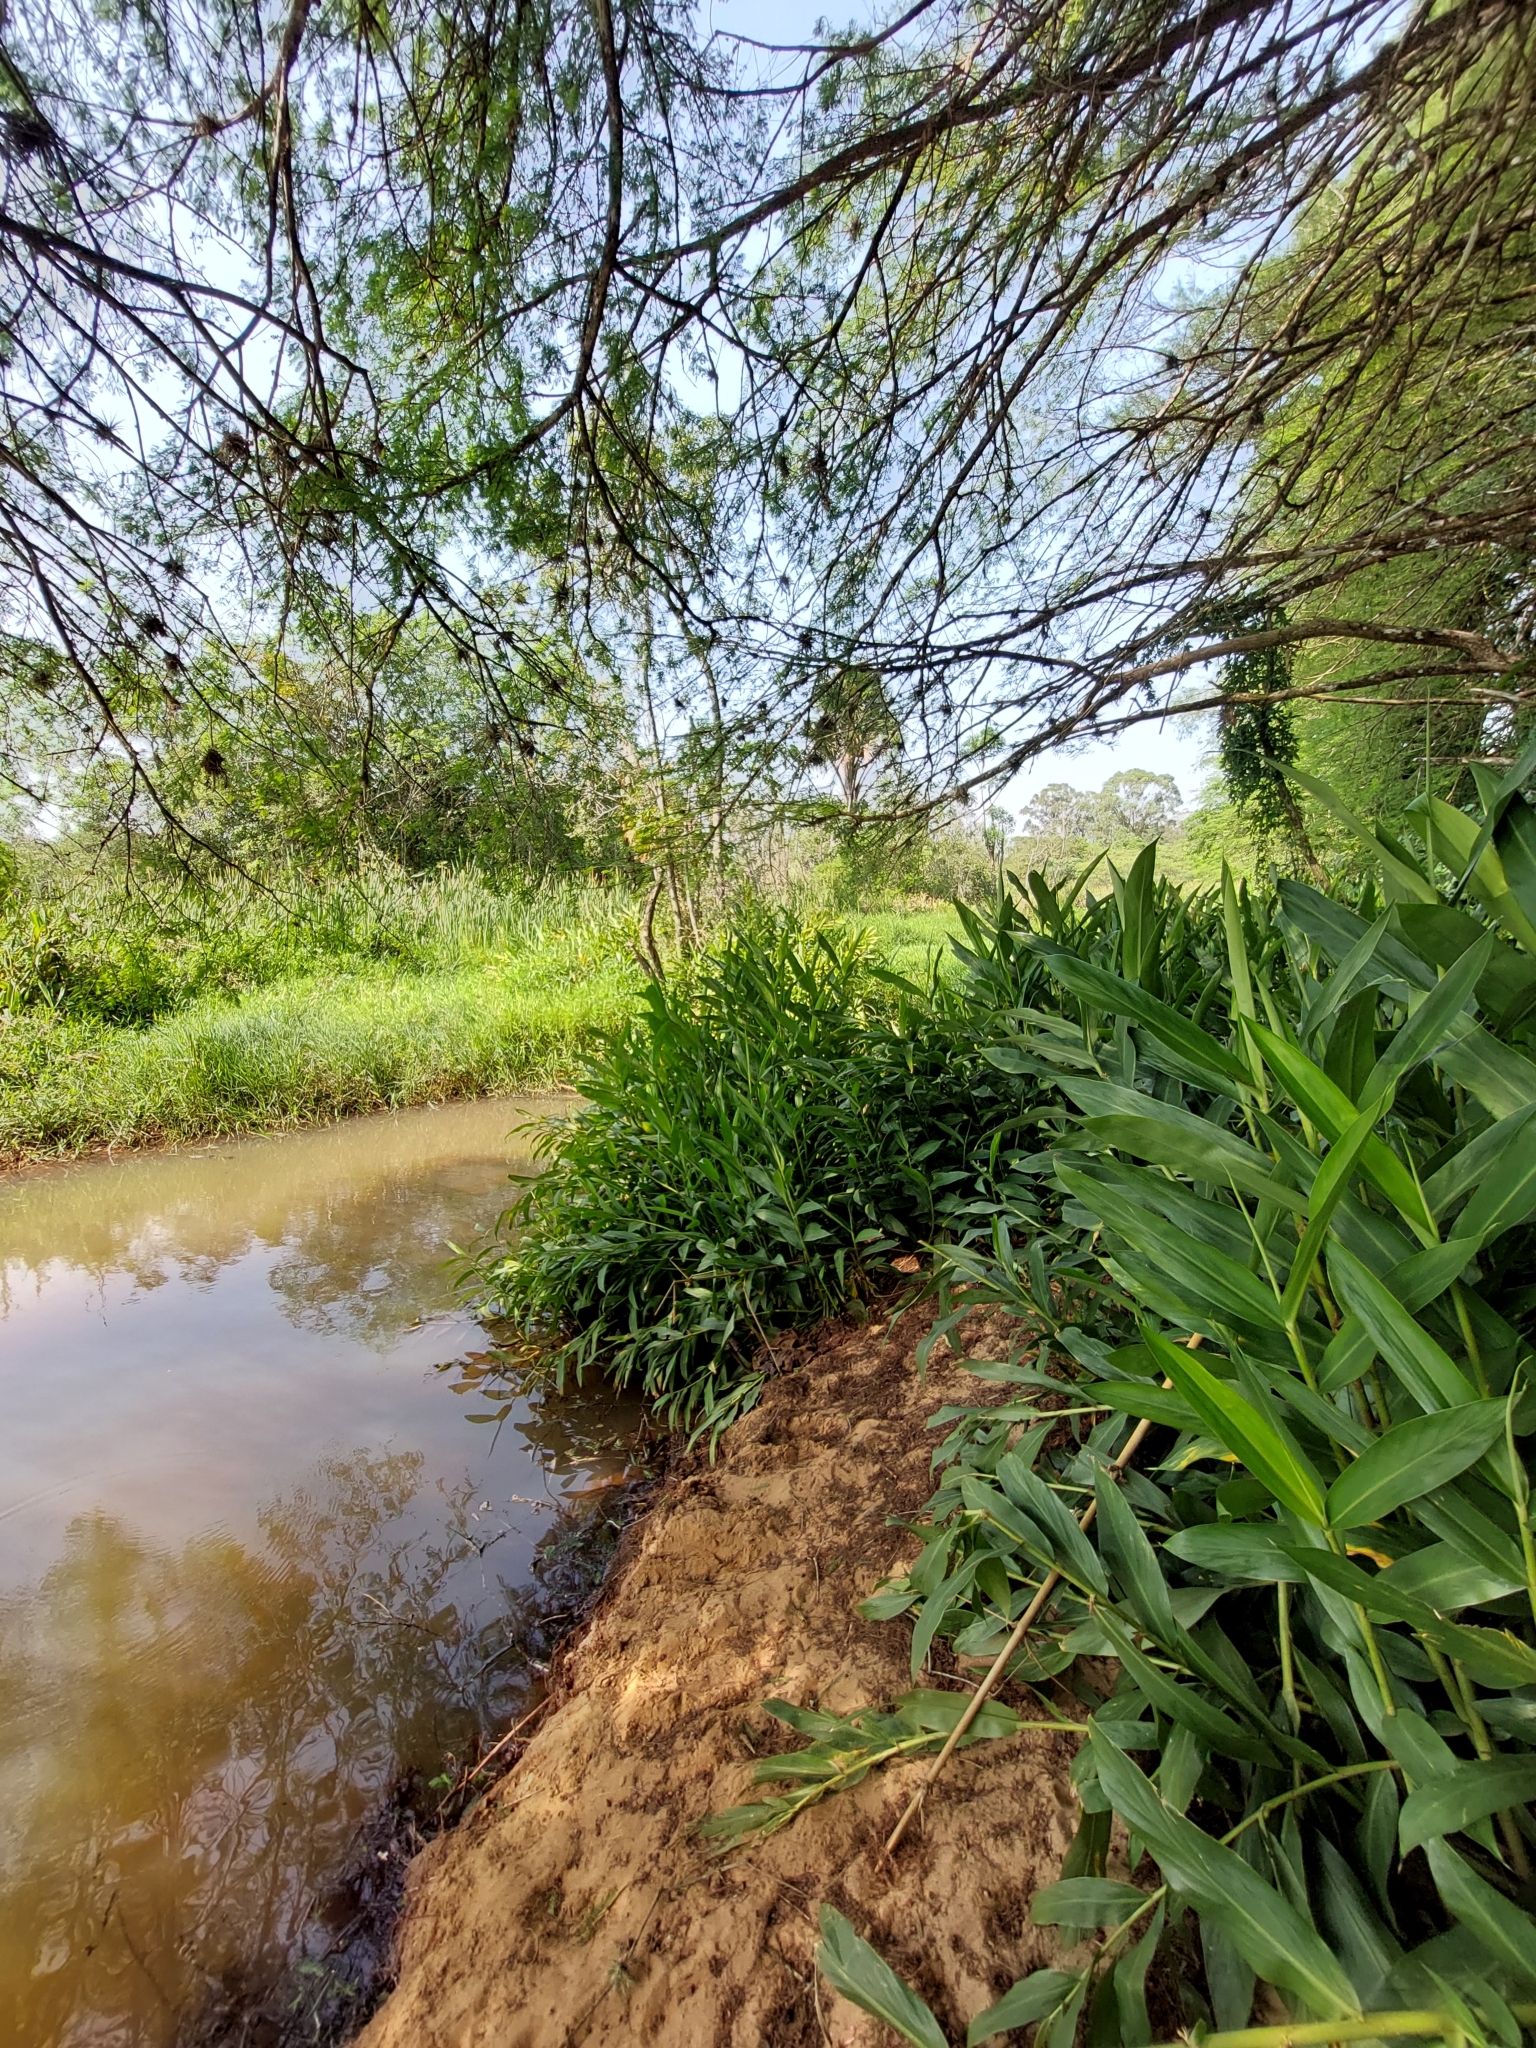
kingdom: Plantae
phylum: Tracheophyta
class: Liliopsida
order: Zingiberales
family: Zingiberaceae
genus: Hedychium
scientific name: Hedychium coronarium
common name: White garland-lily
